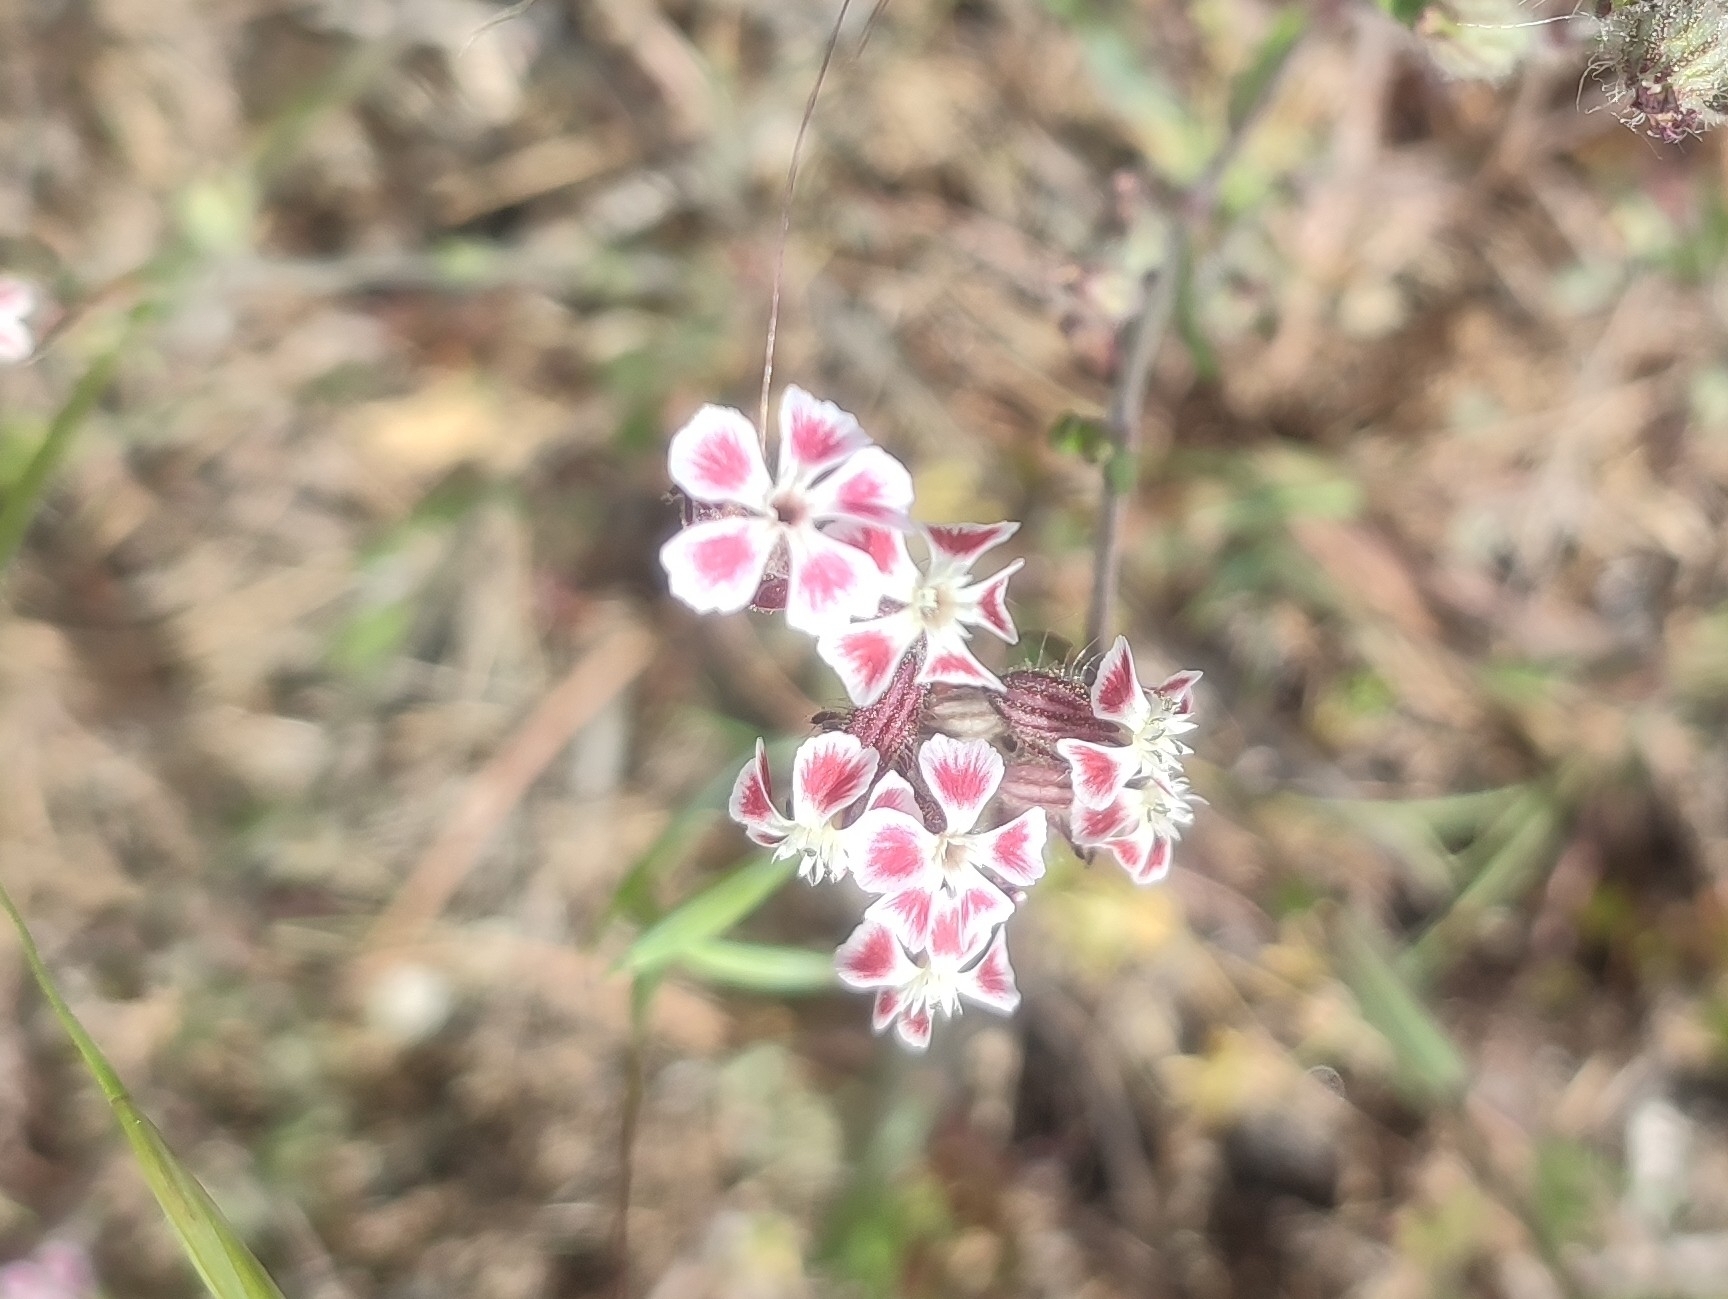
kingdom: Plantae
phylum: Tracheophyta
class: Magnoliopsida
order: Caryophyllales
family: Caryophyllaceae
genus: Silene
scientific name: Silene gallica
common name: Small-flowered catchfly
